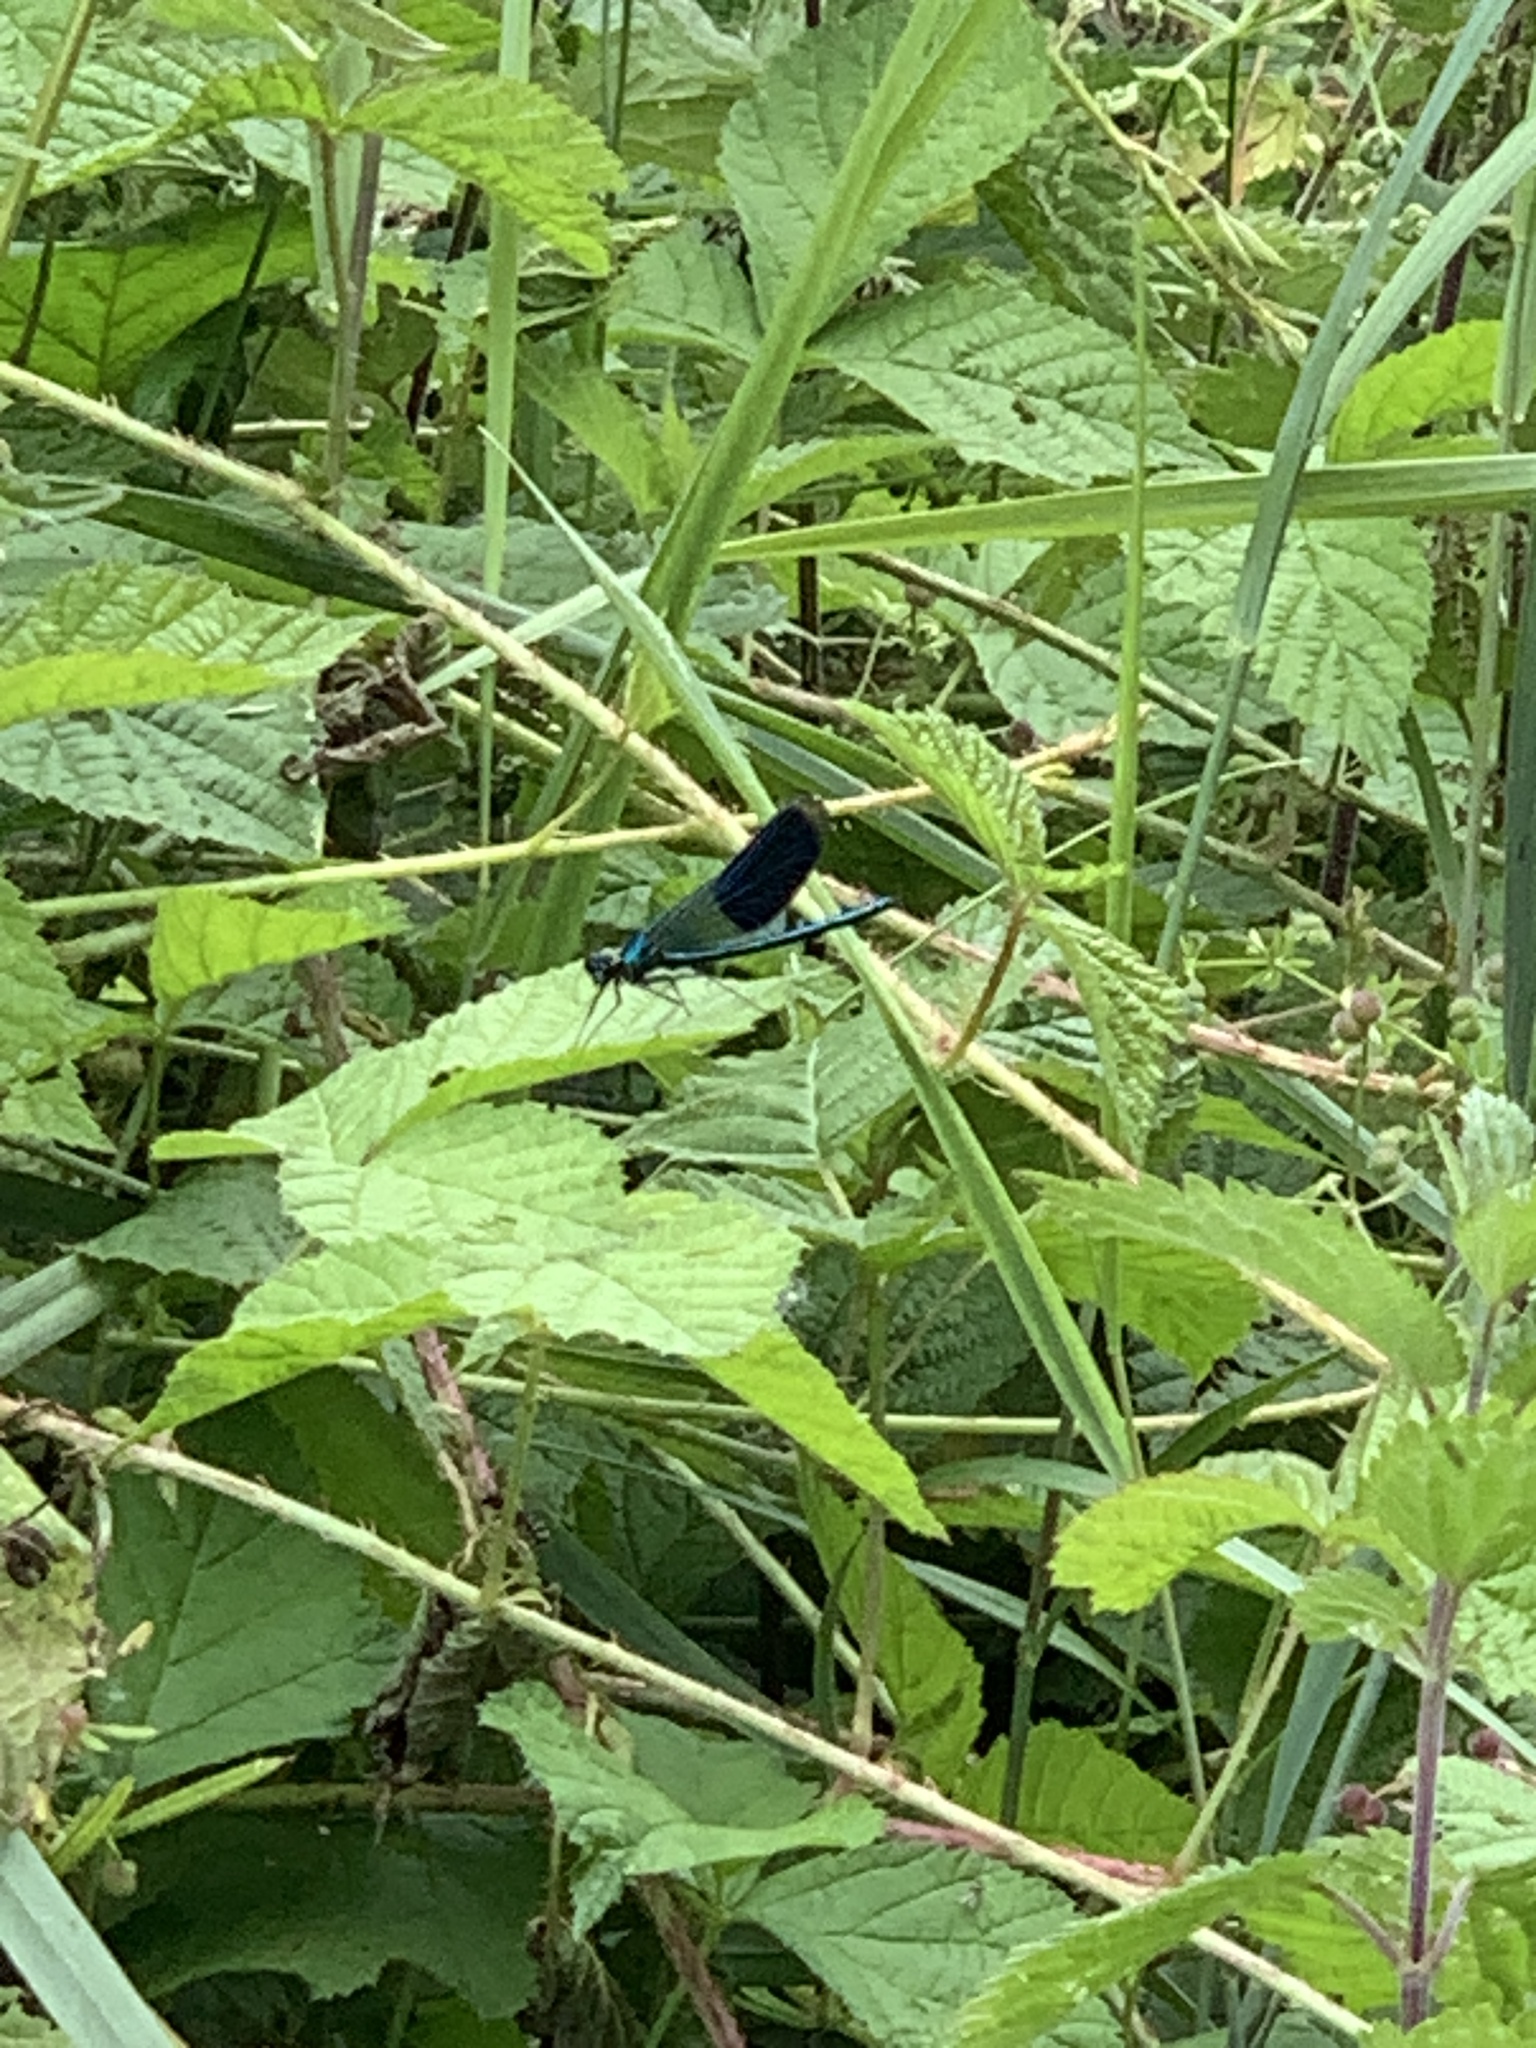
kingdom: Animalia
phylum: Arthropoda
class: Insecta
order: Odonata
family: Calopterygidae
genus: Calopteryx
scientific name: Calopteryx splendens
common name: Banded demoiselle
